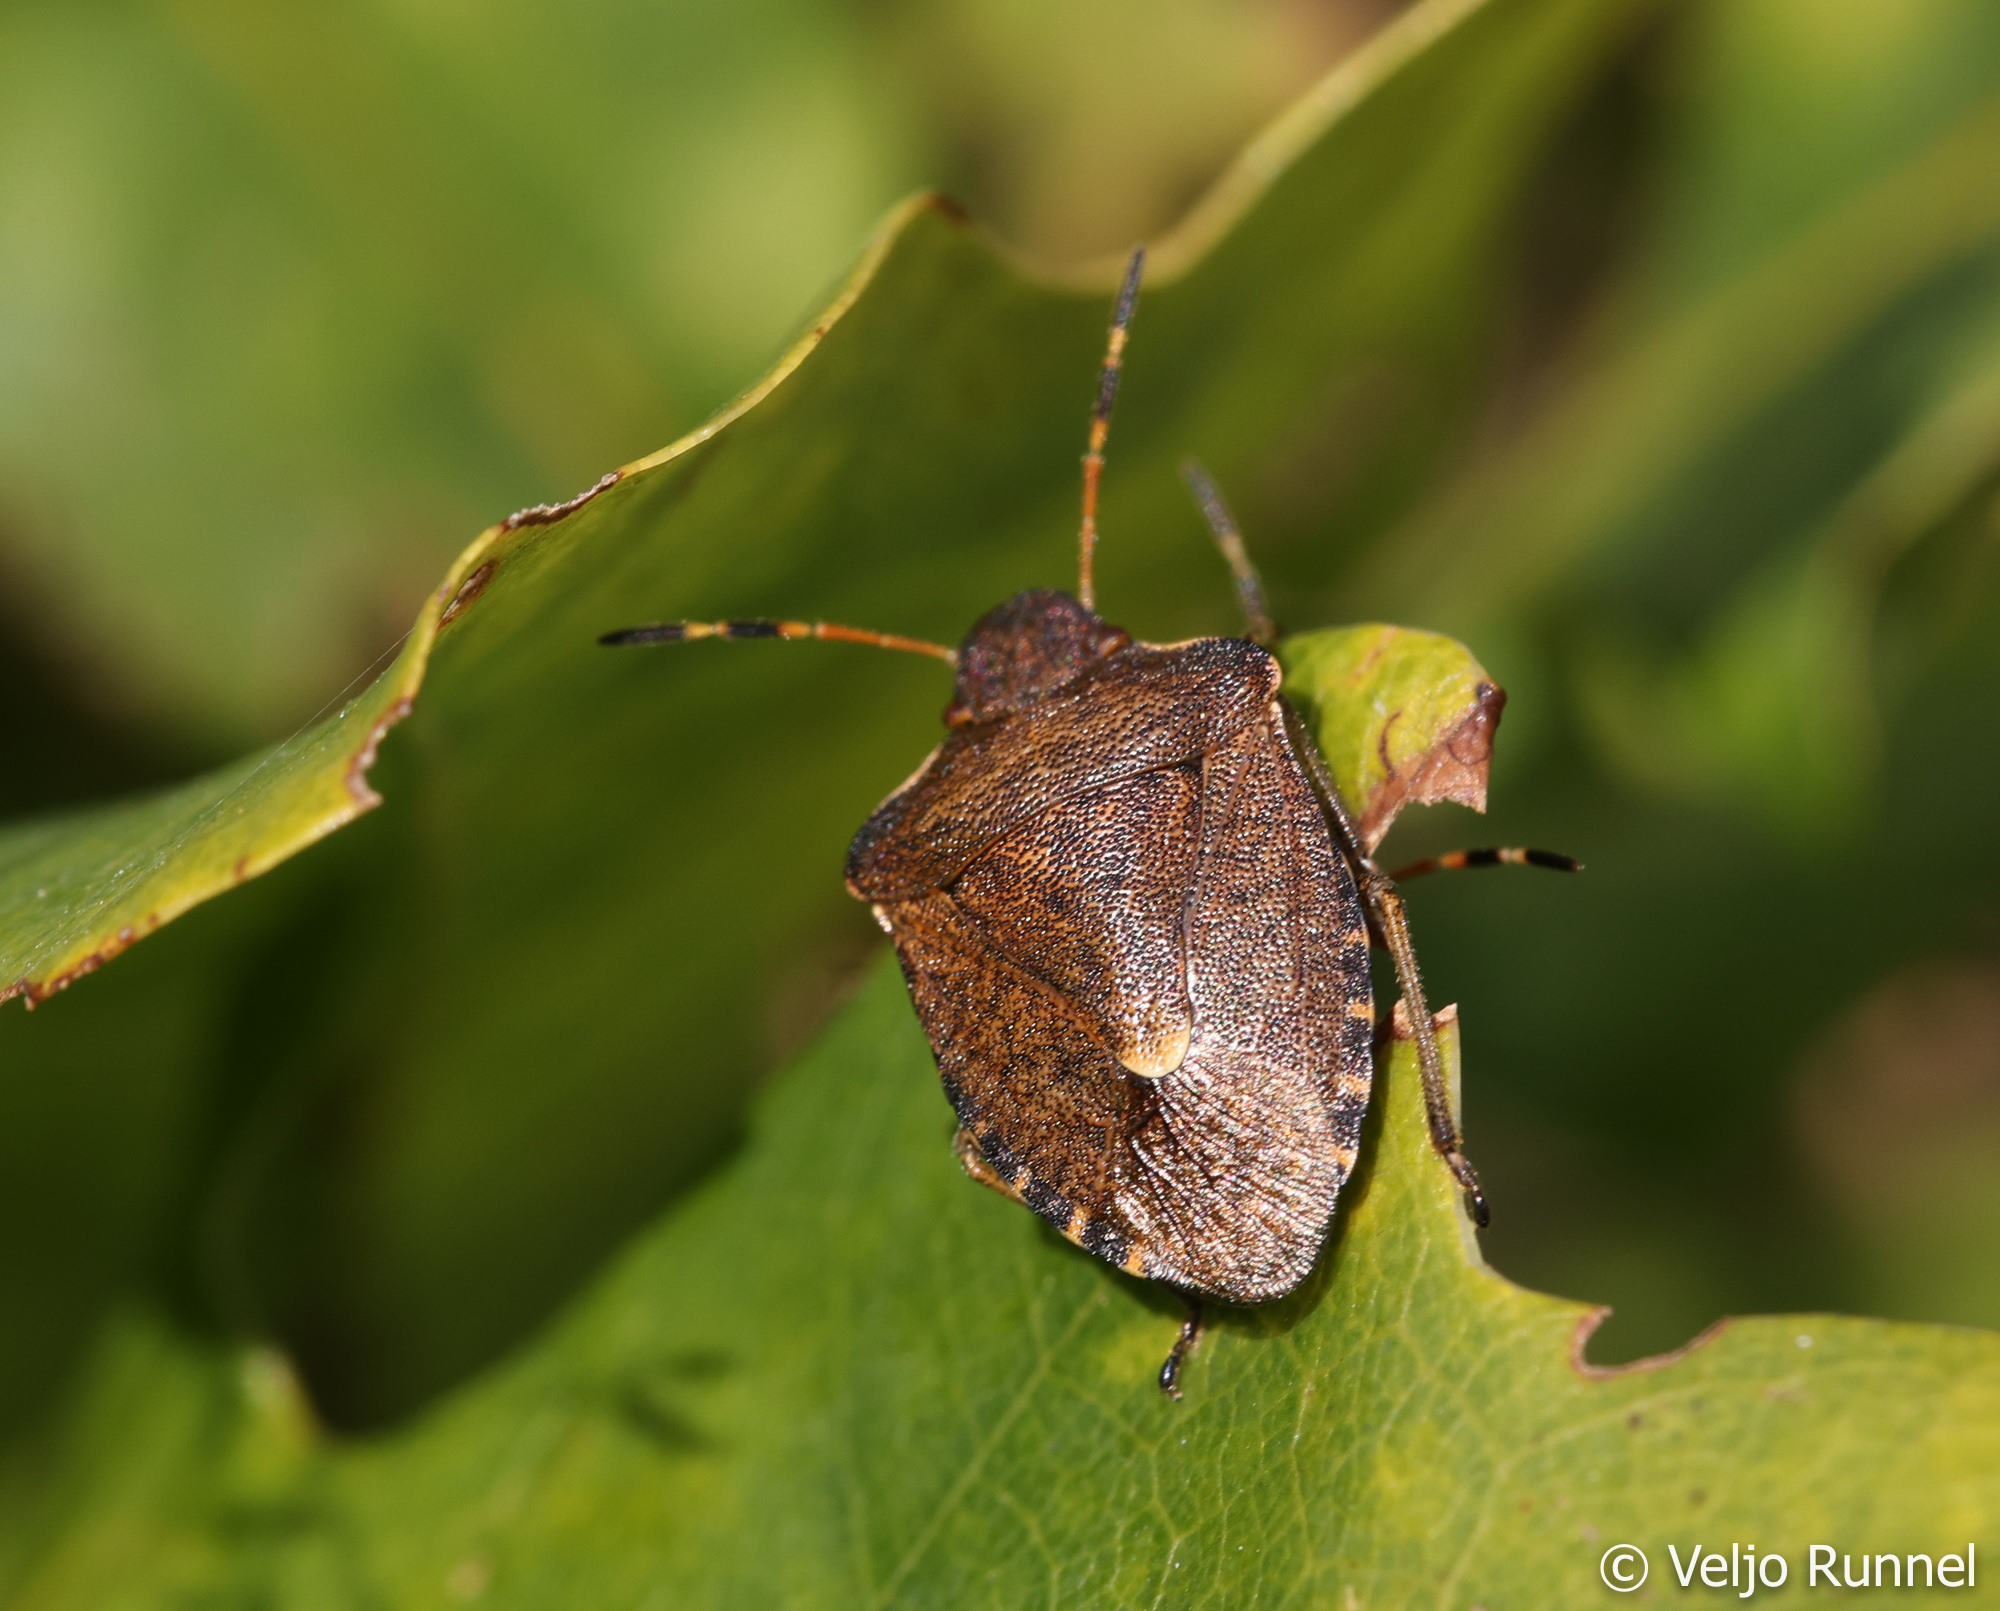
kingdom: Animalia
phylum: Arthropoda
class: Insecta
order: Hemiptera
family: Pentatomidae
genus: Holcostethus
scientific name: Holcostethus strictus
